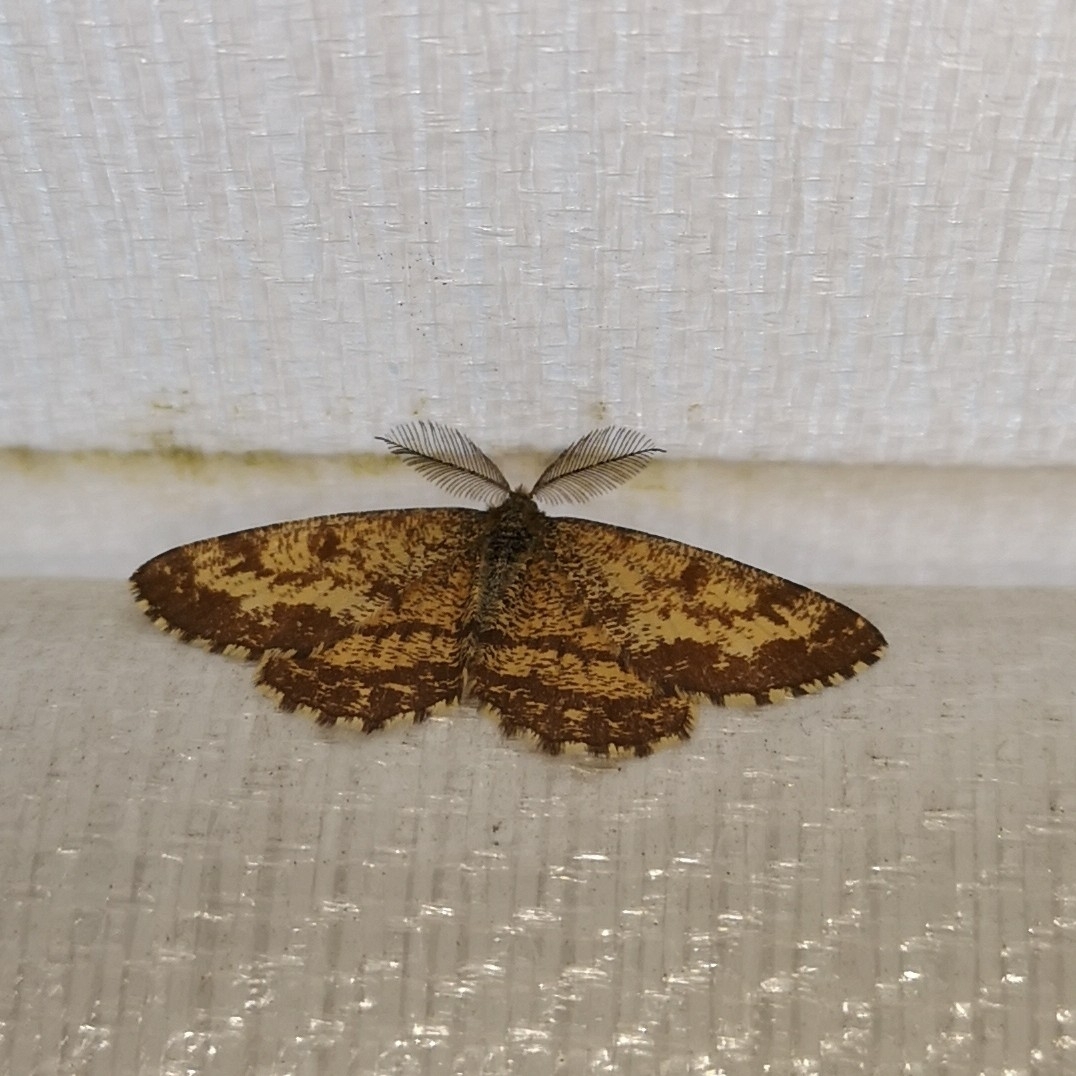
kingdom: Animalia
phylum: Arthropoda
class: Insecta
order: Lepidoptera
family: Geometridae
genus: Ematurga
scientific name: Ematurga atomaria
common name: Common heath
